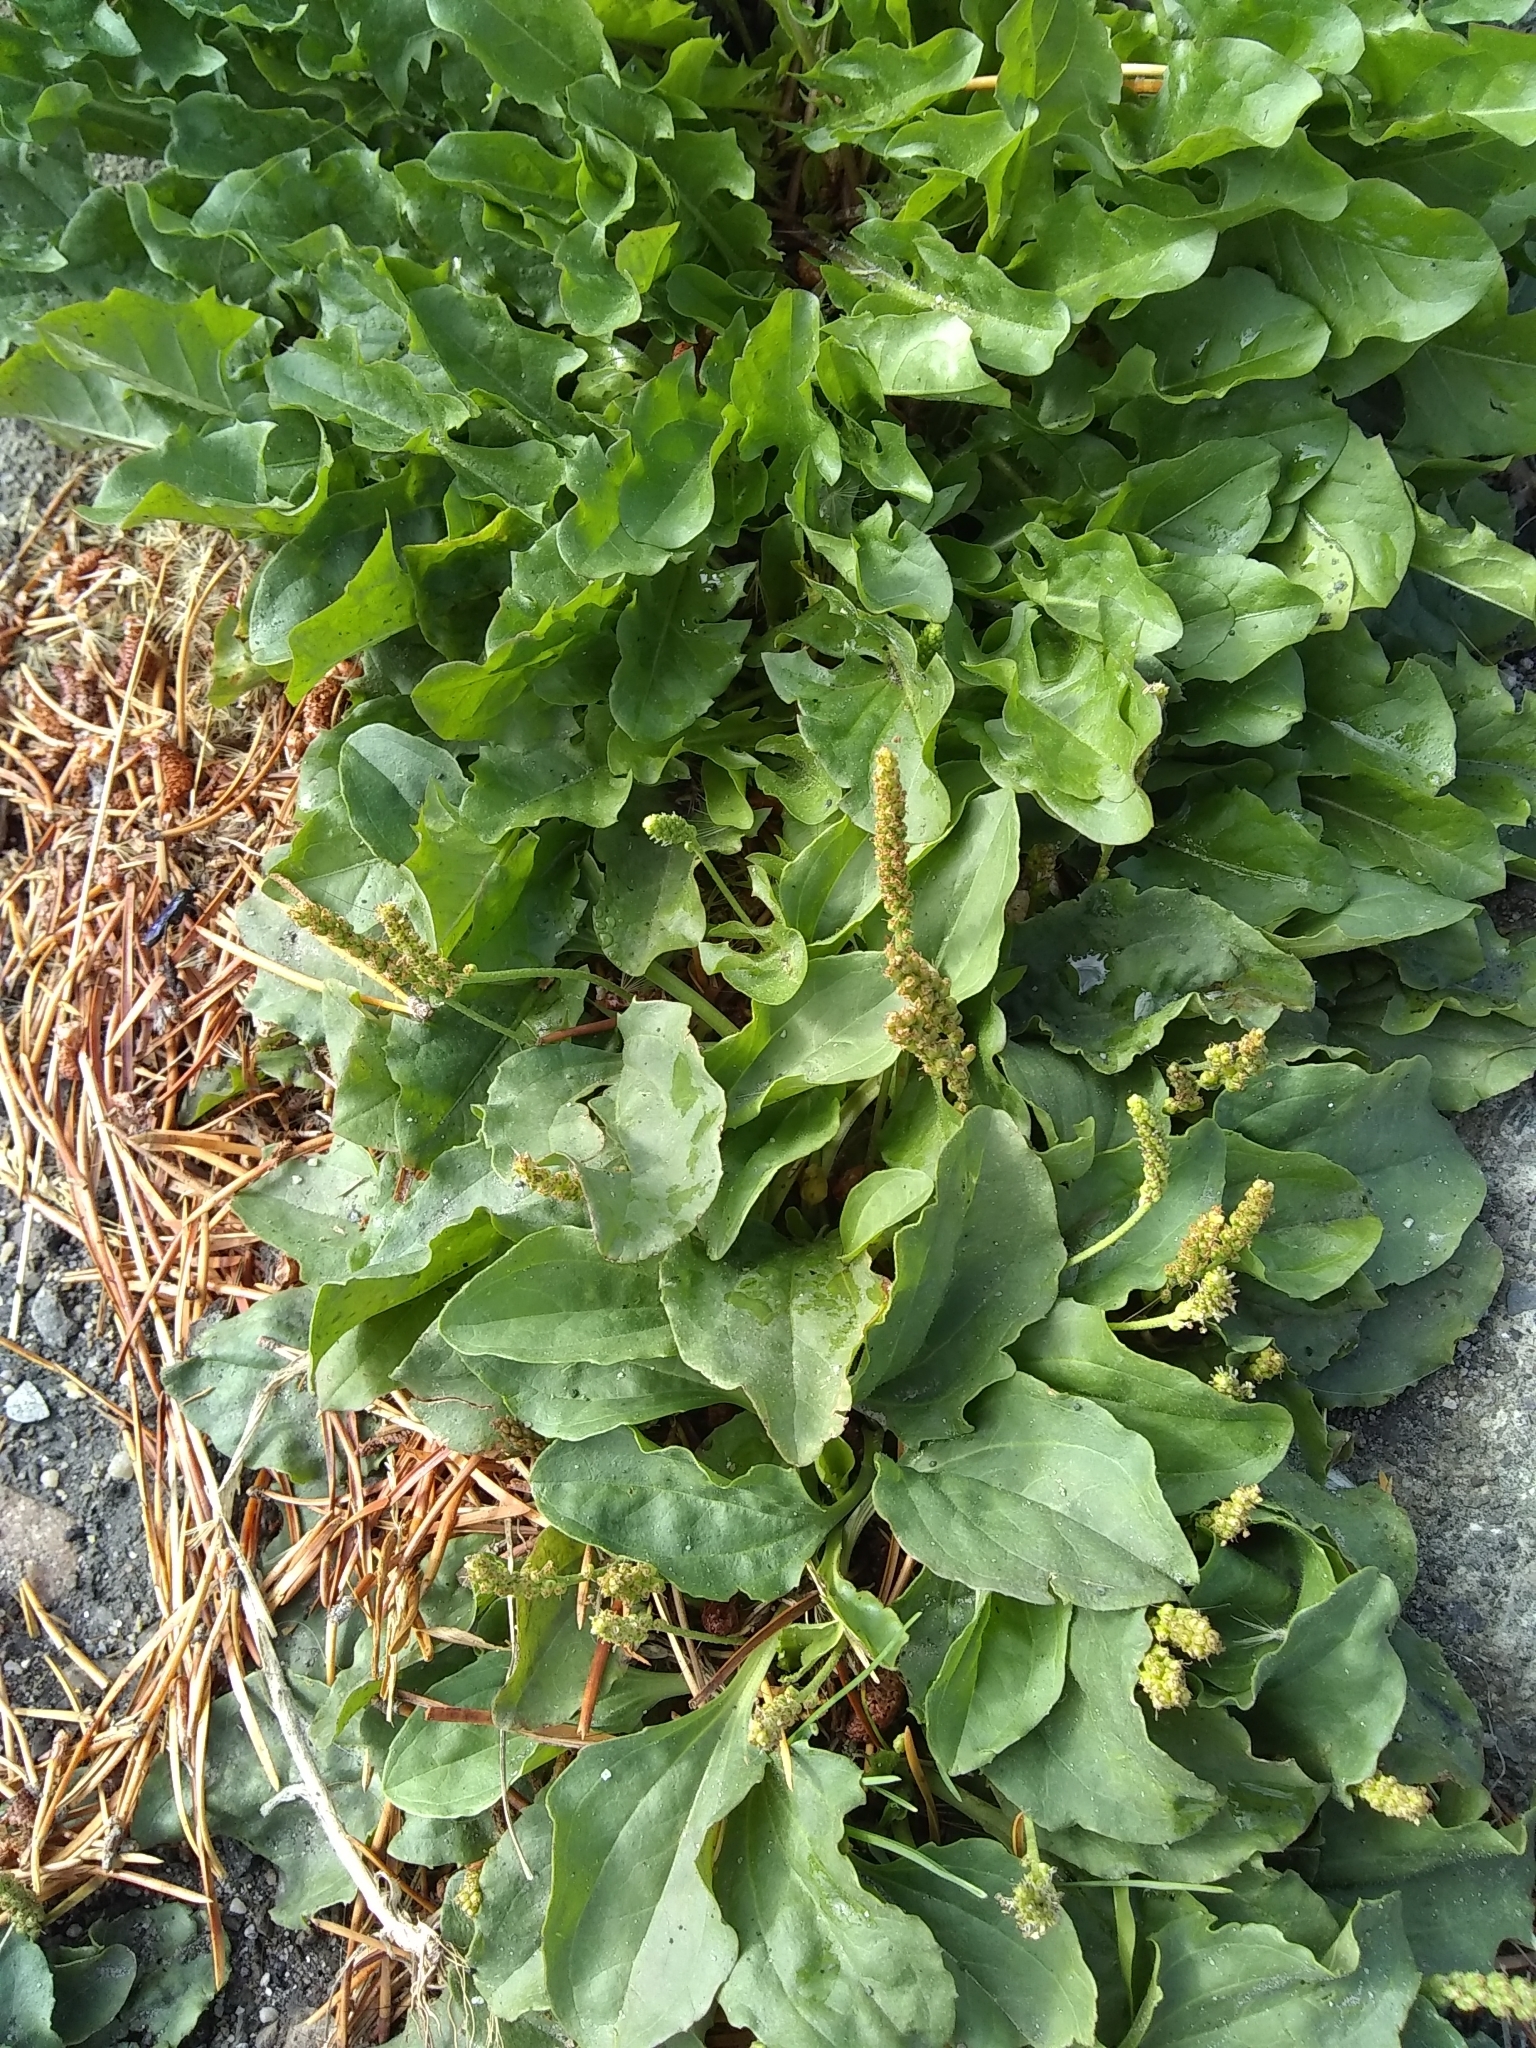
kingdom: Plantae
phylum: Tracheophyta
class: Magnoliopsida
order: Lamiales
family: Plantaginaceae
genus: Plantago
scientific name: Plantago major
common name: Common plantain
